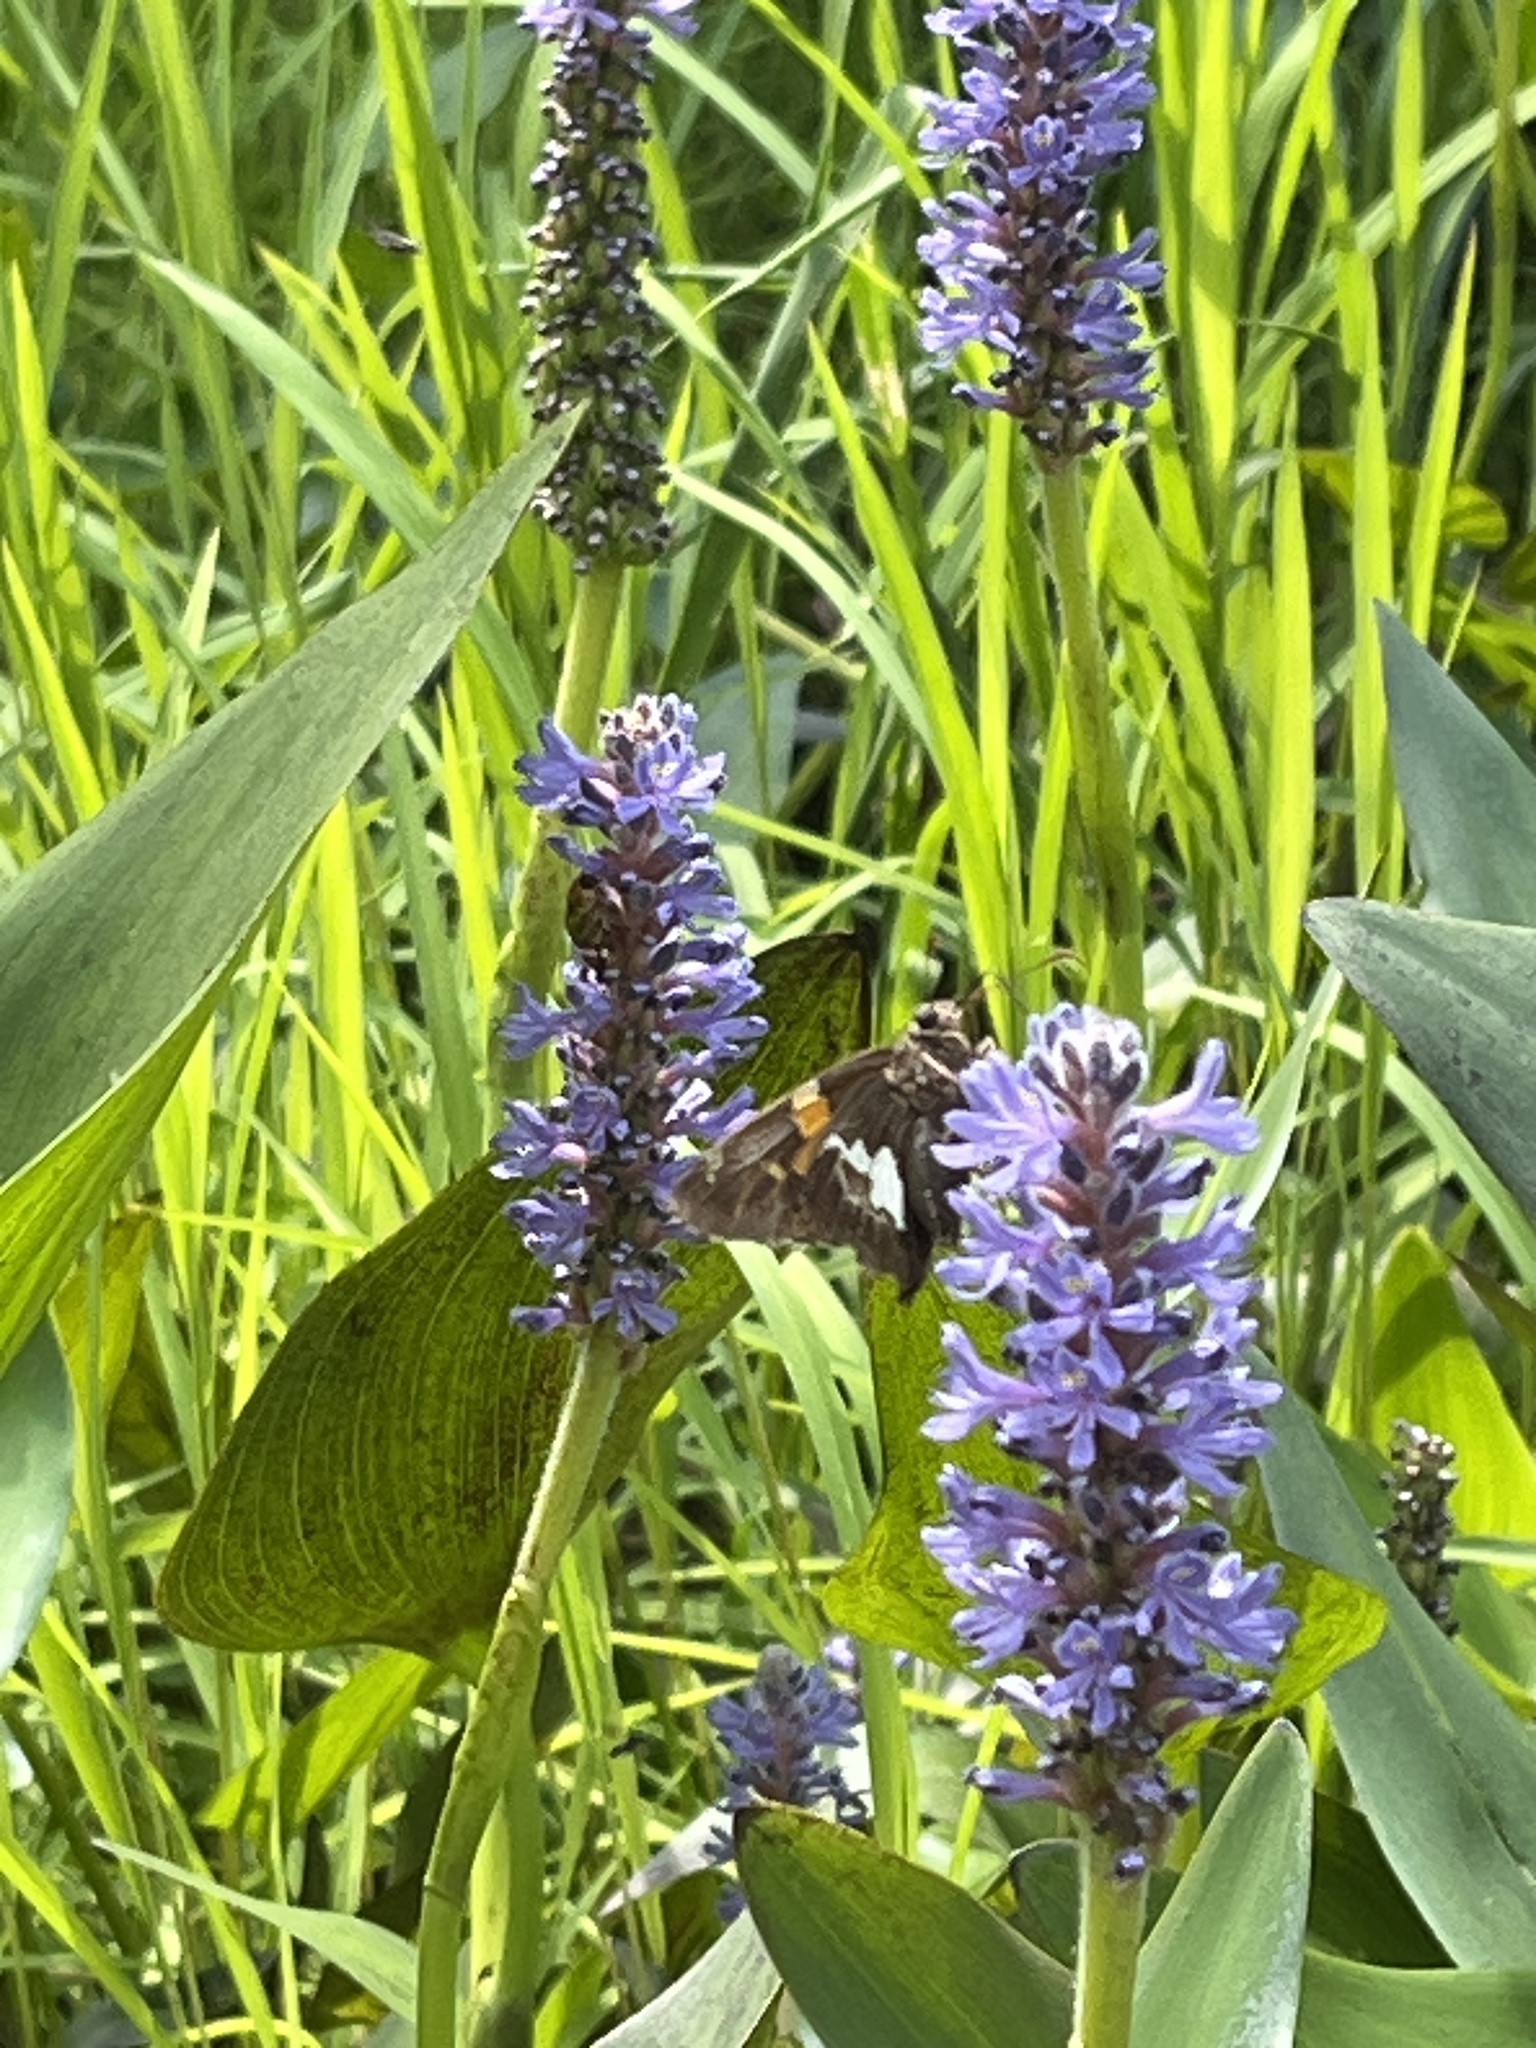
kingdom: Animalia
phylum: Arthropoda
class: Insecta
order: Lepidoptera
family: Hesperiidae
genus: Epargyreus
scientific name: Epargyreus clarus
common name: Silver-spotted skipper
